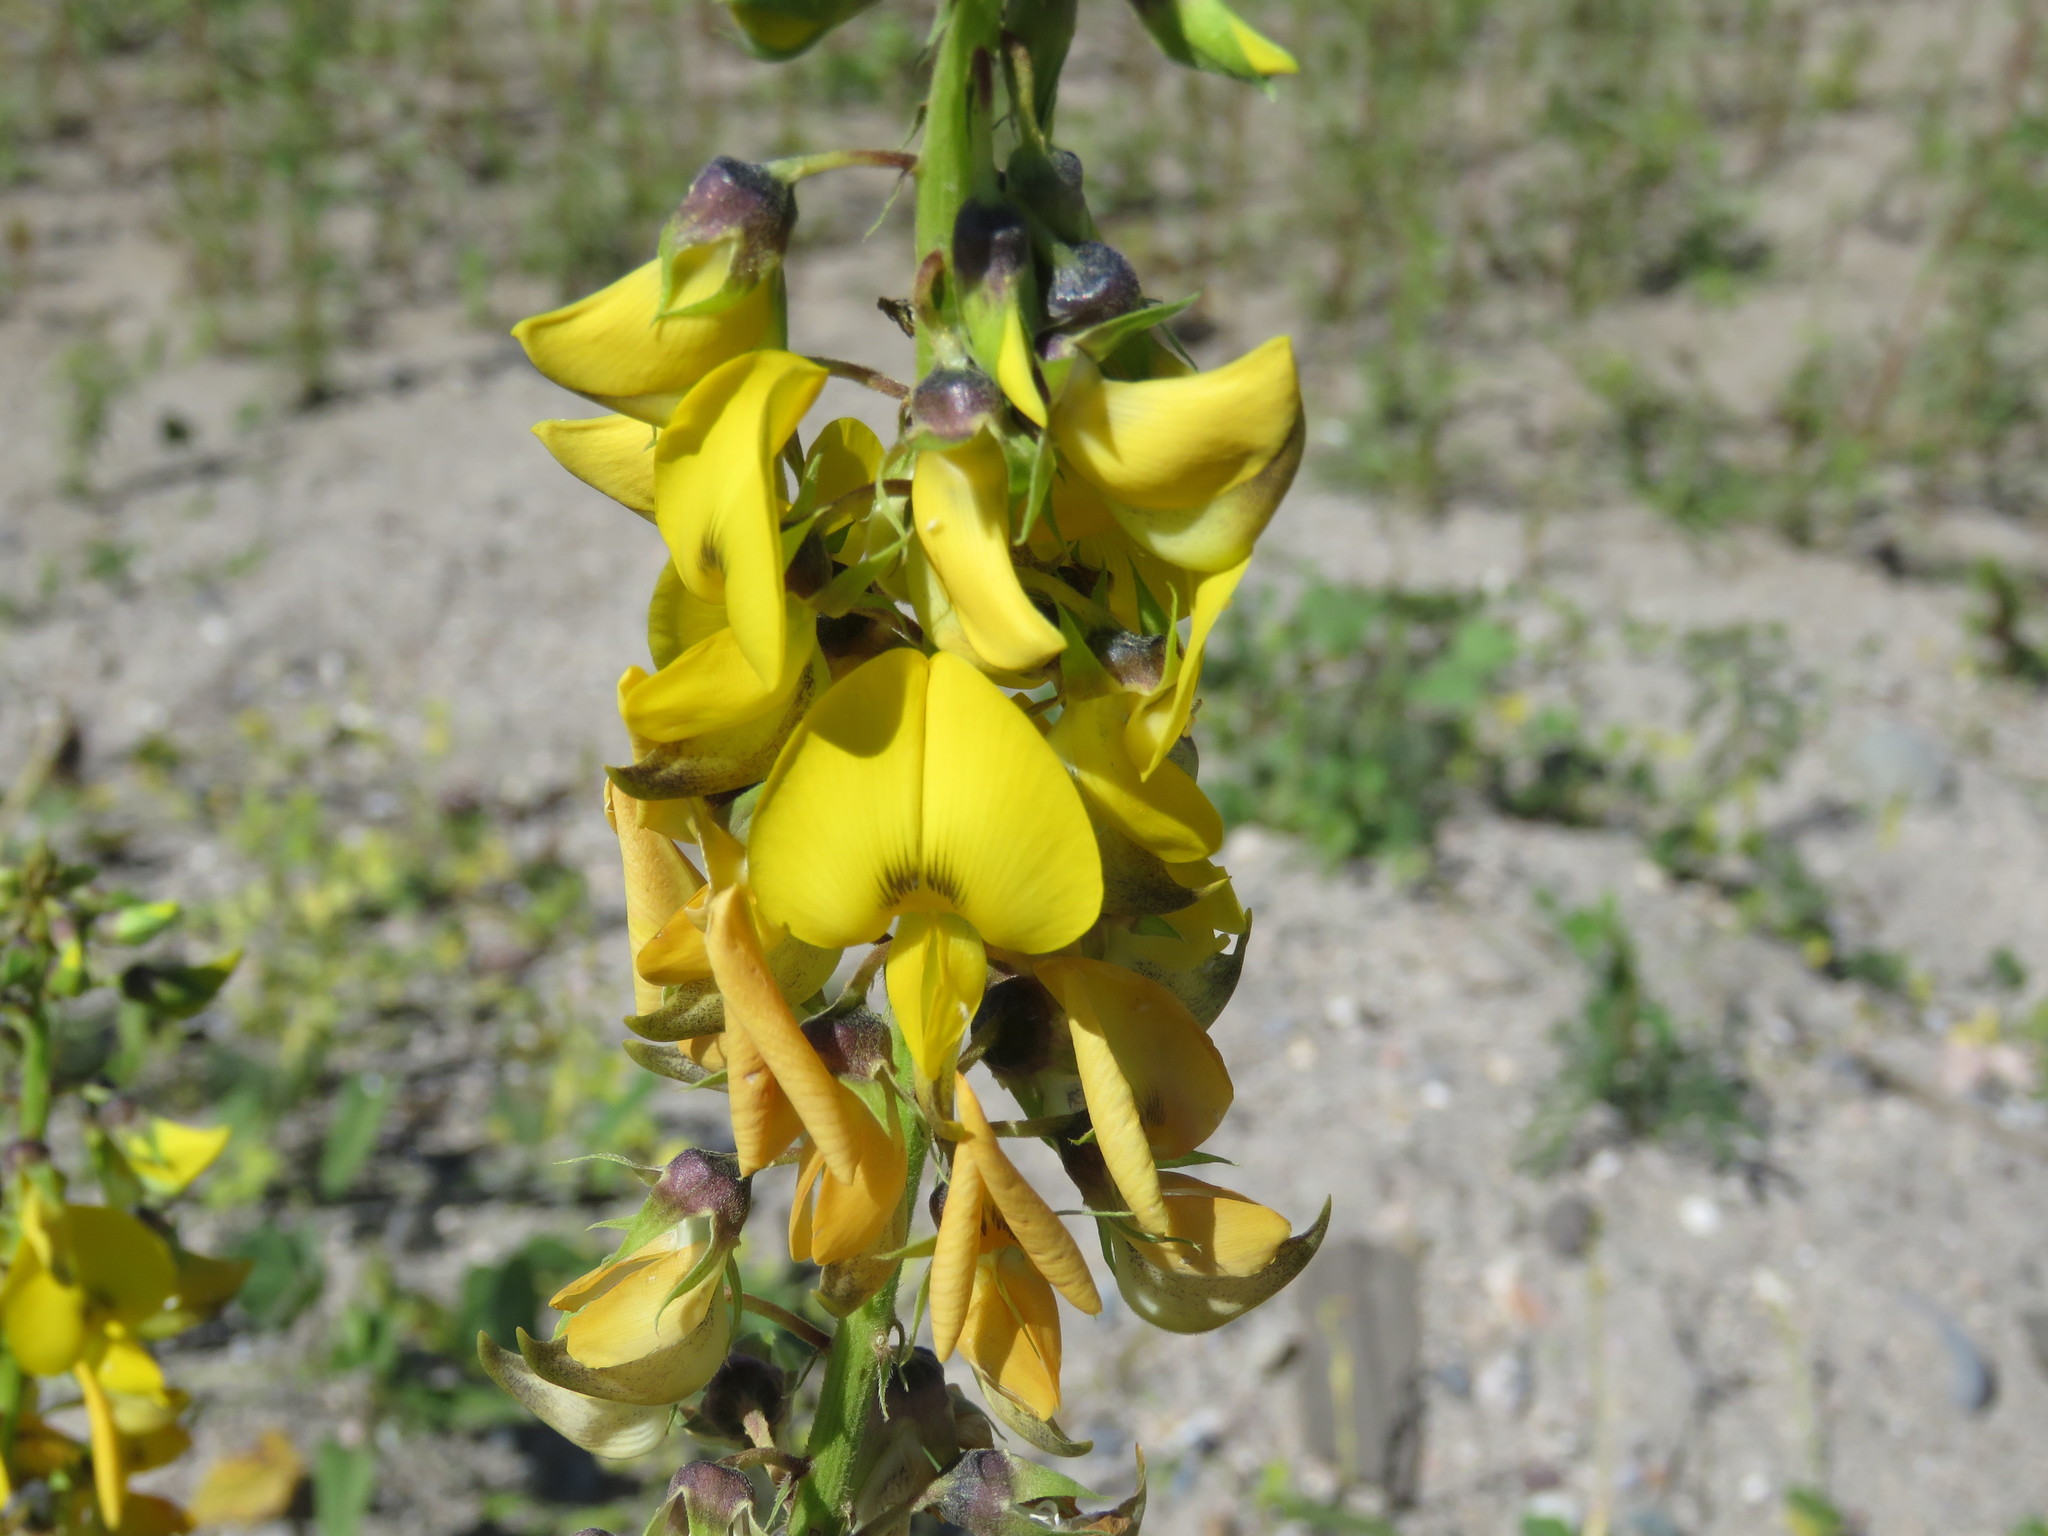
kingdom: Plantae
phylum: Tracheophyta
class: Magnoliopsida
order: Fabales
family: Fabaceae
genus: Crotalaria
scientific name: Crotalaria incana
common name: Shakeshake
